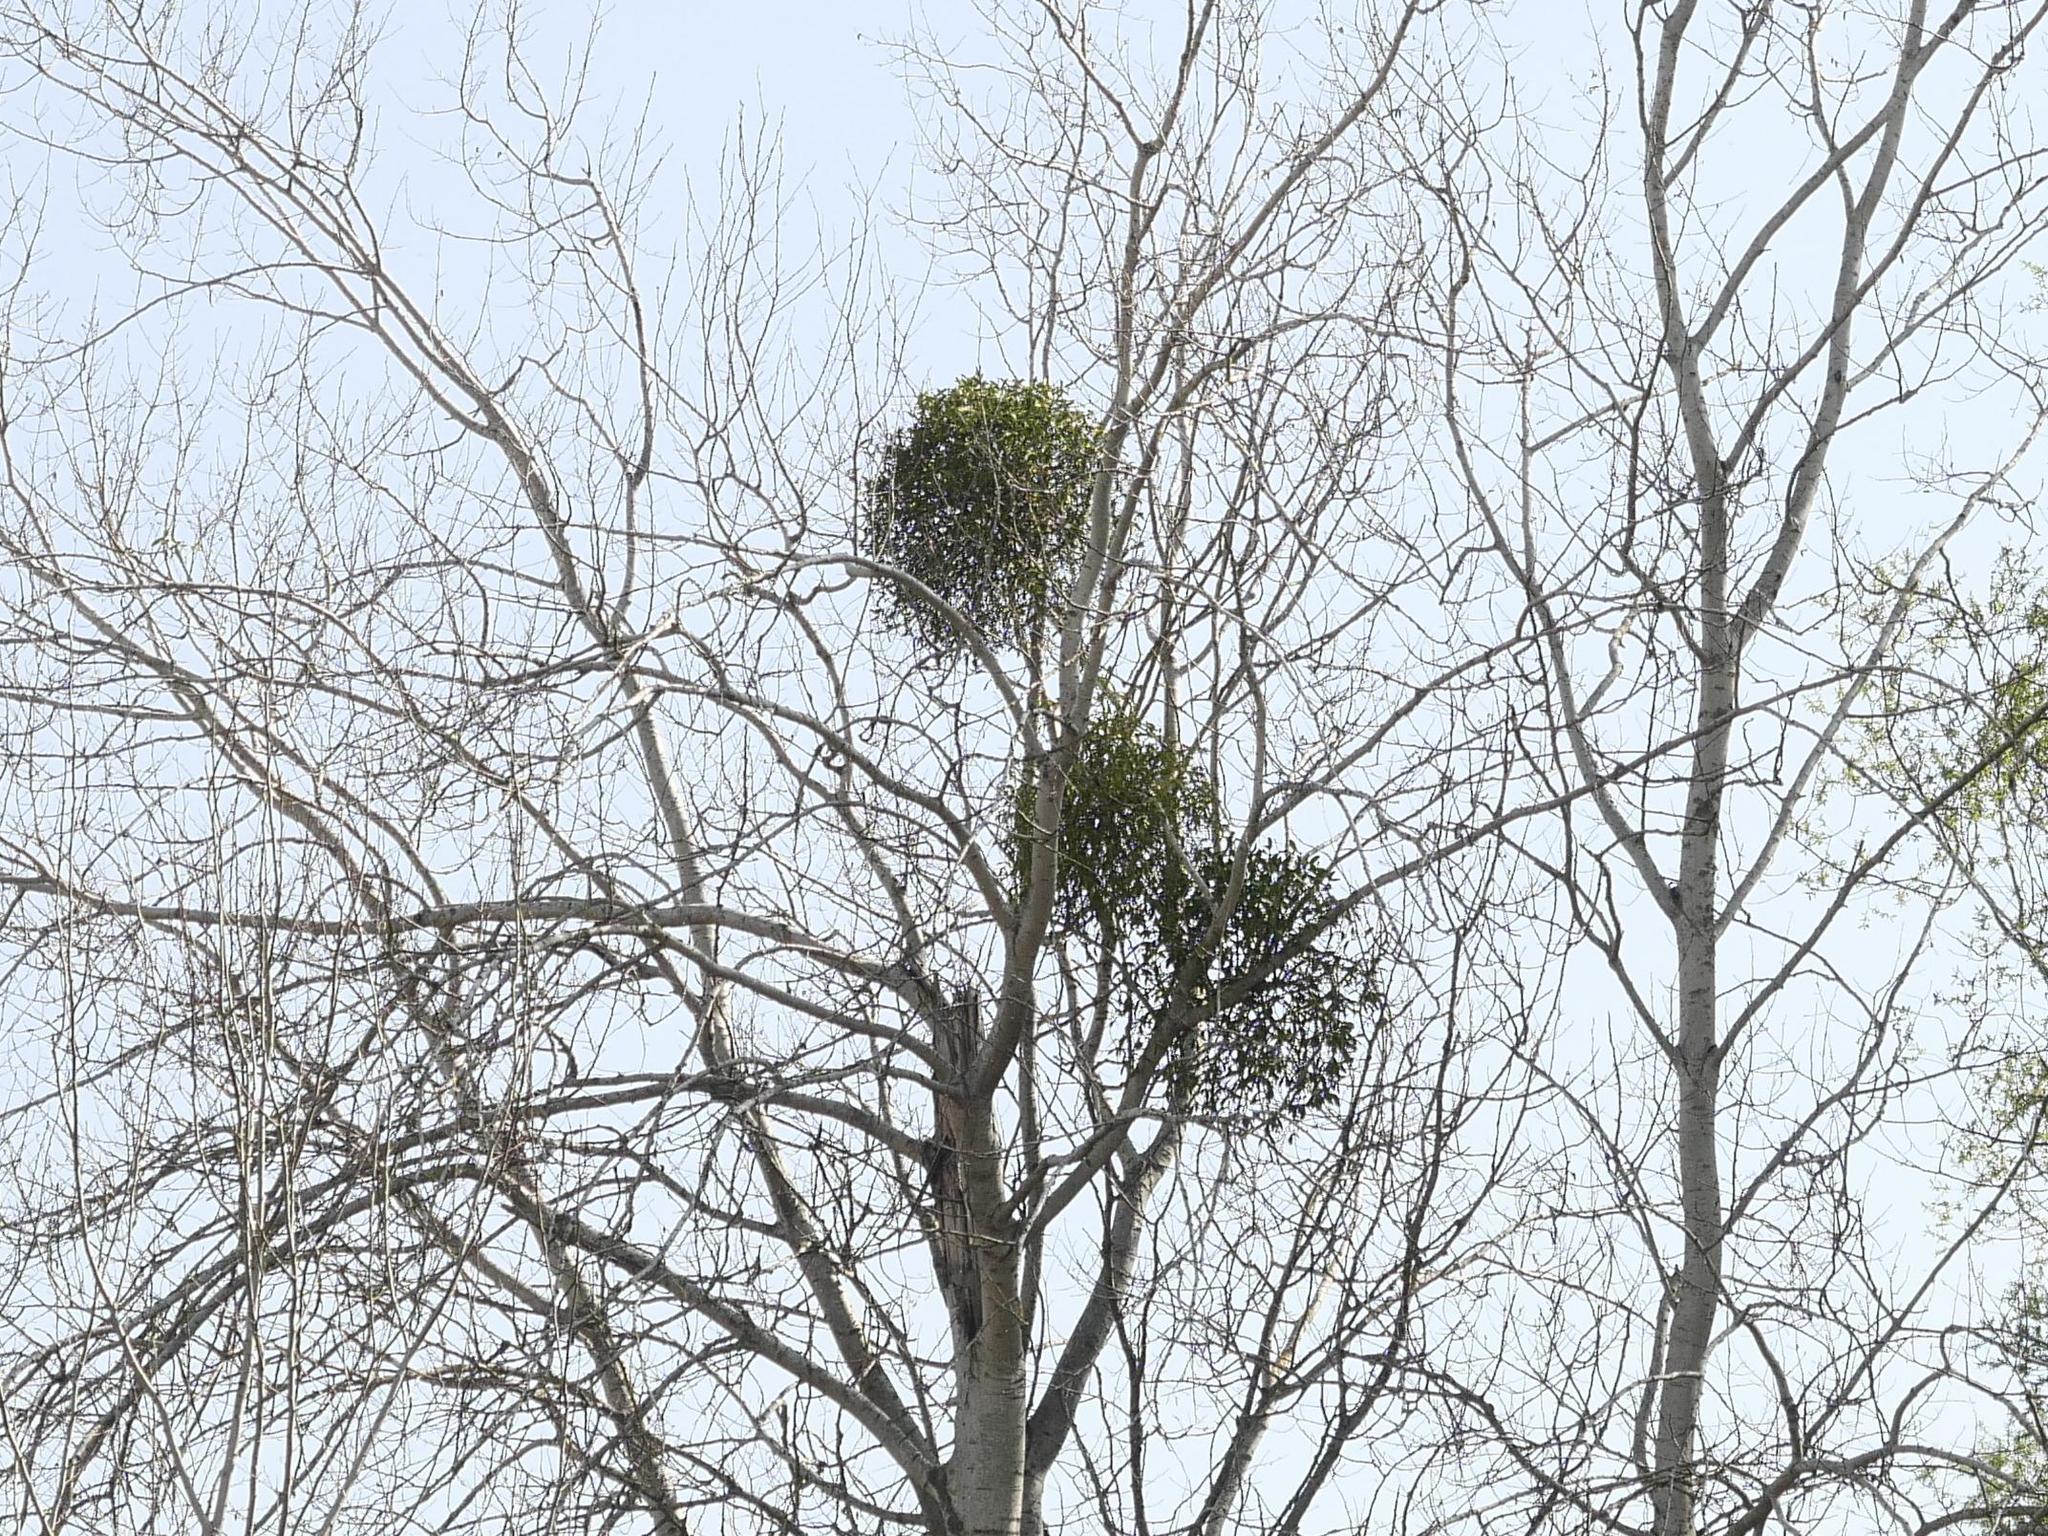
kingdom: Plantae
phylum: Tracheophyta
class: Magnoliopsida
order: Santalales
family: Viscaceae
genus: Viscum
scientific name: Viscum album
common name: Mistletoe
